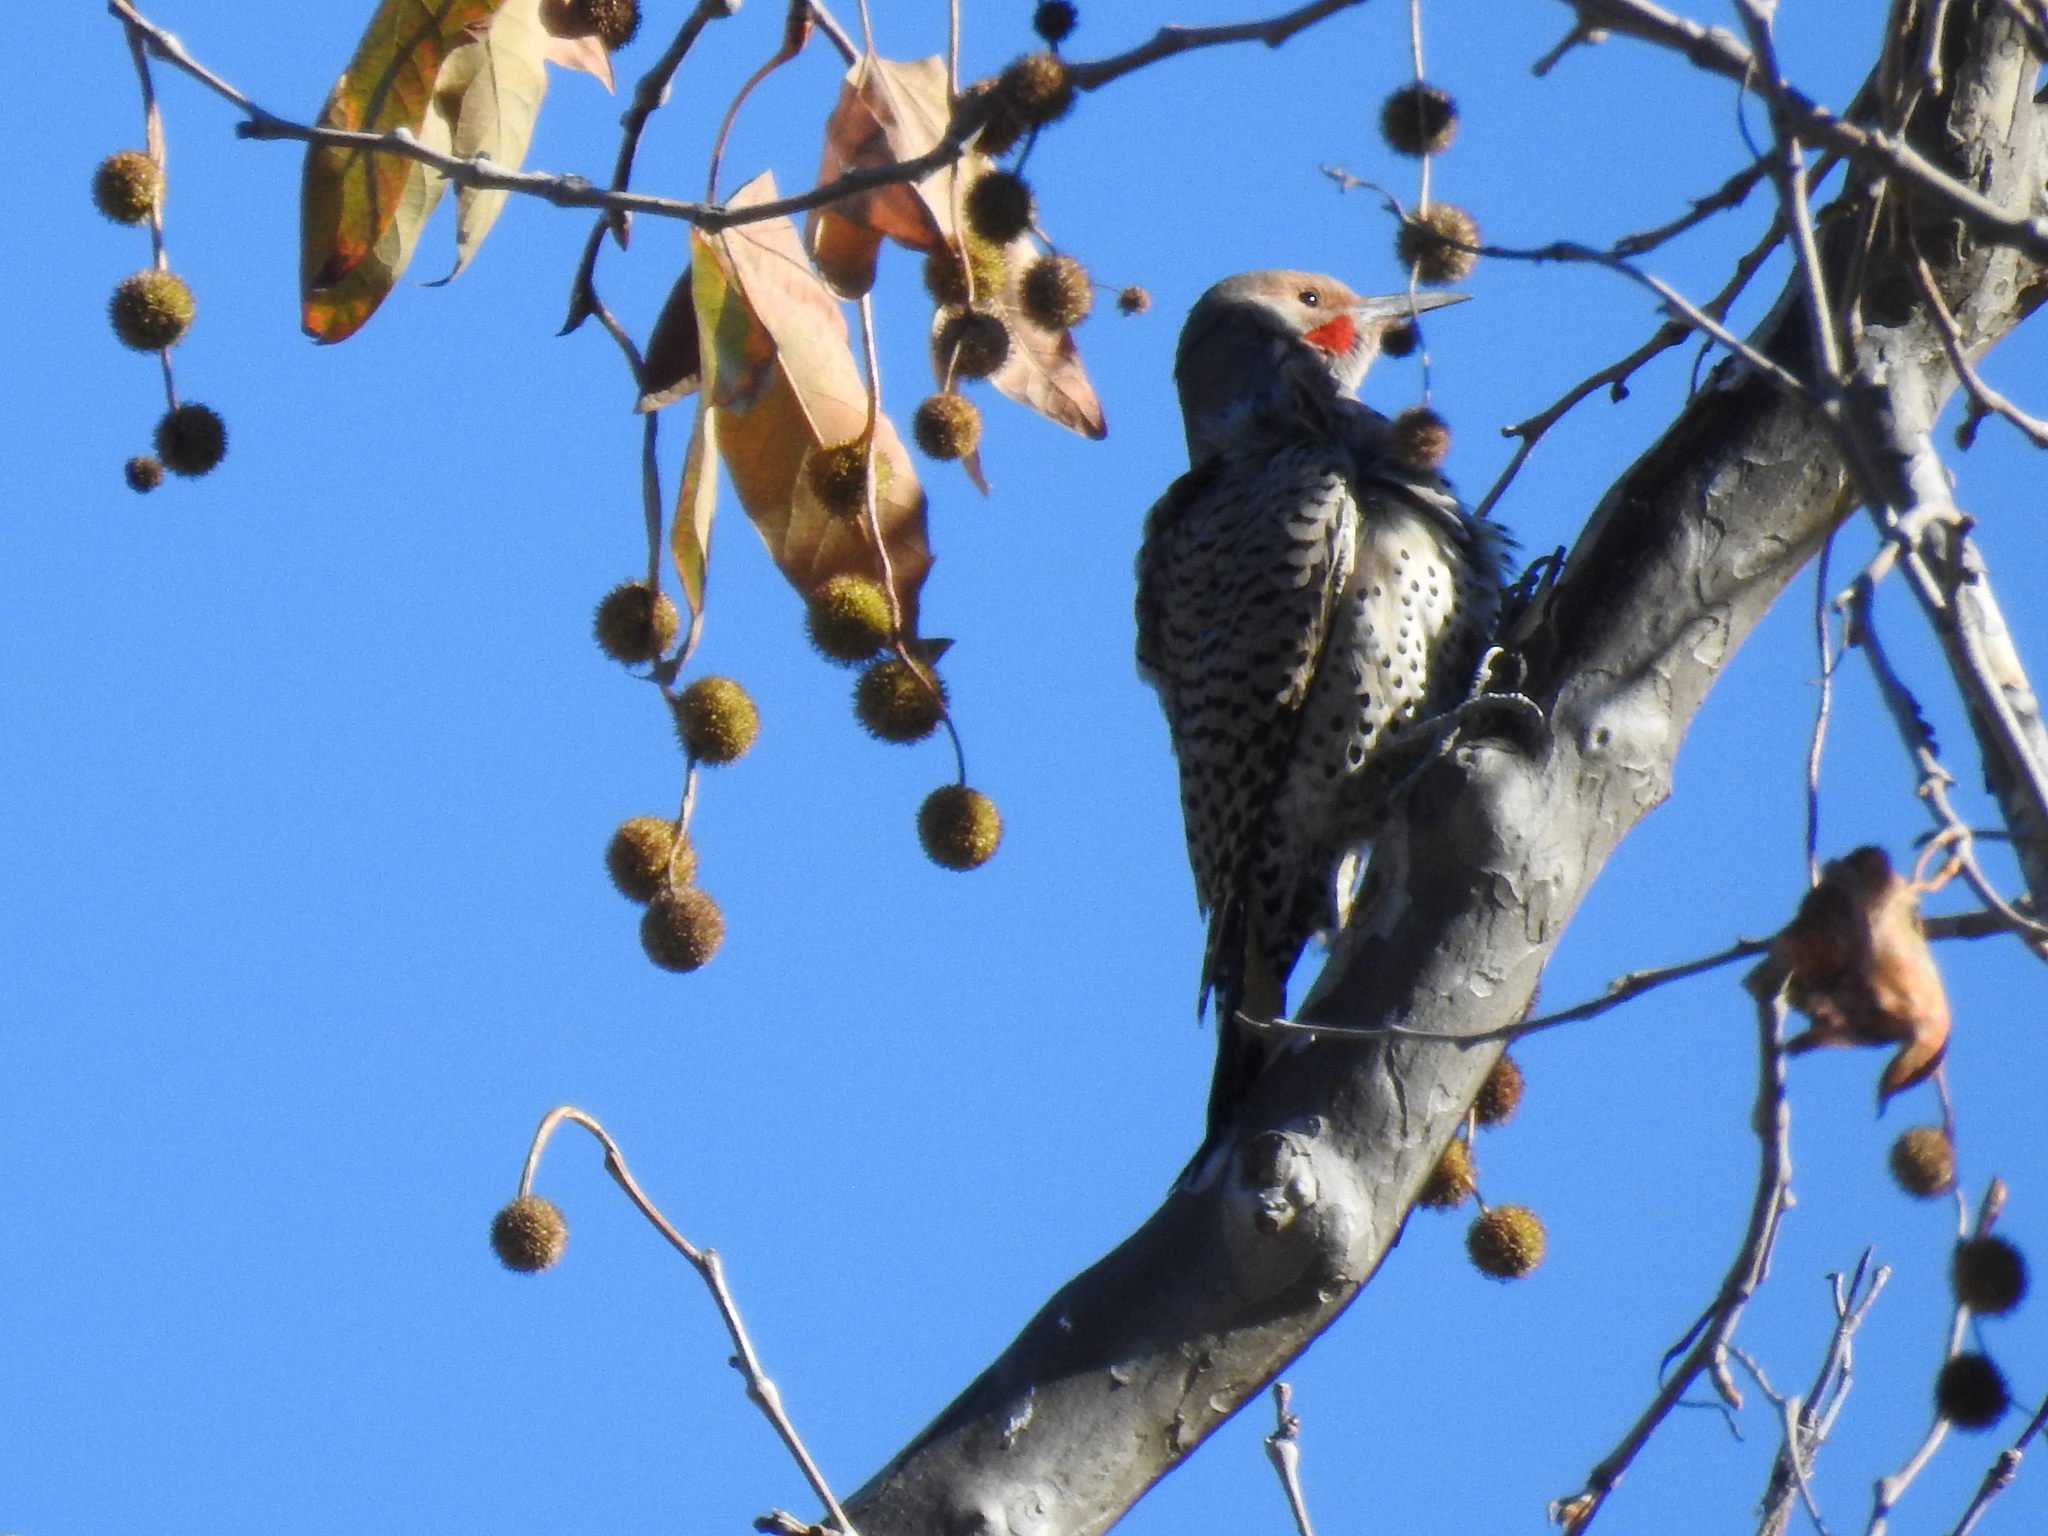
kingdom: Animalia
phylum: Chordata
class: Aves
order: Piciformes
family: Picidae
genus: Colaptes
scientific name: Colaptes auratus
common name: Northern flicker
